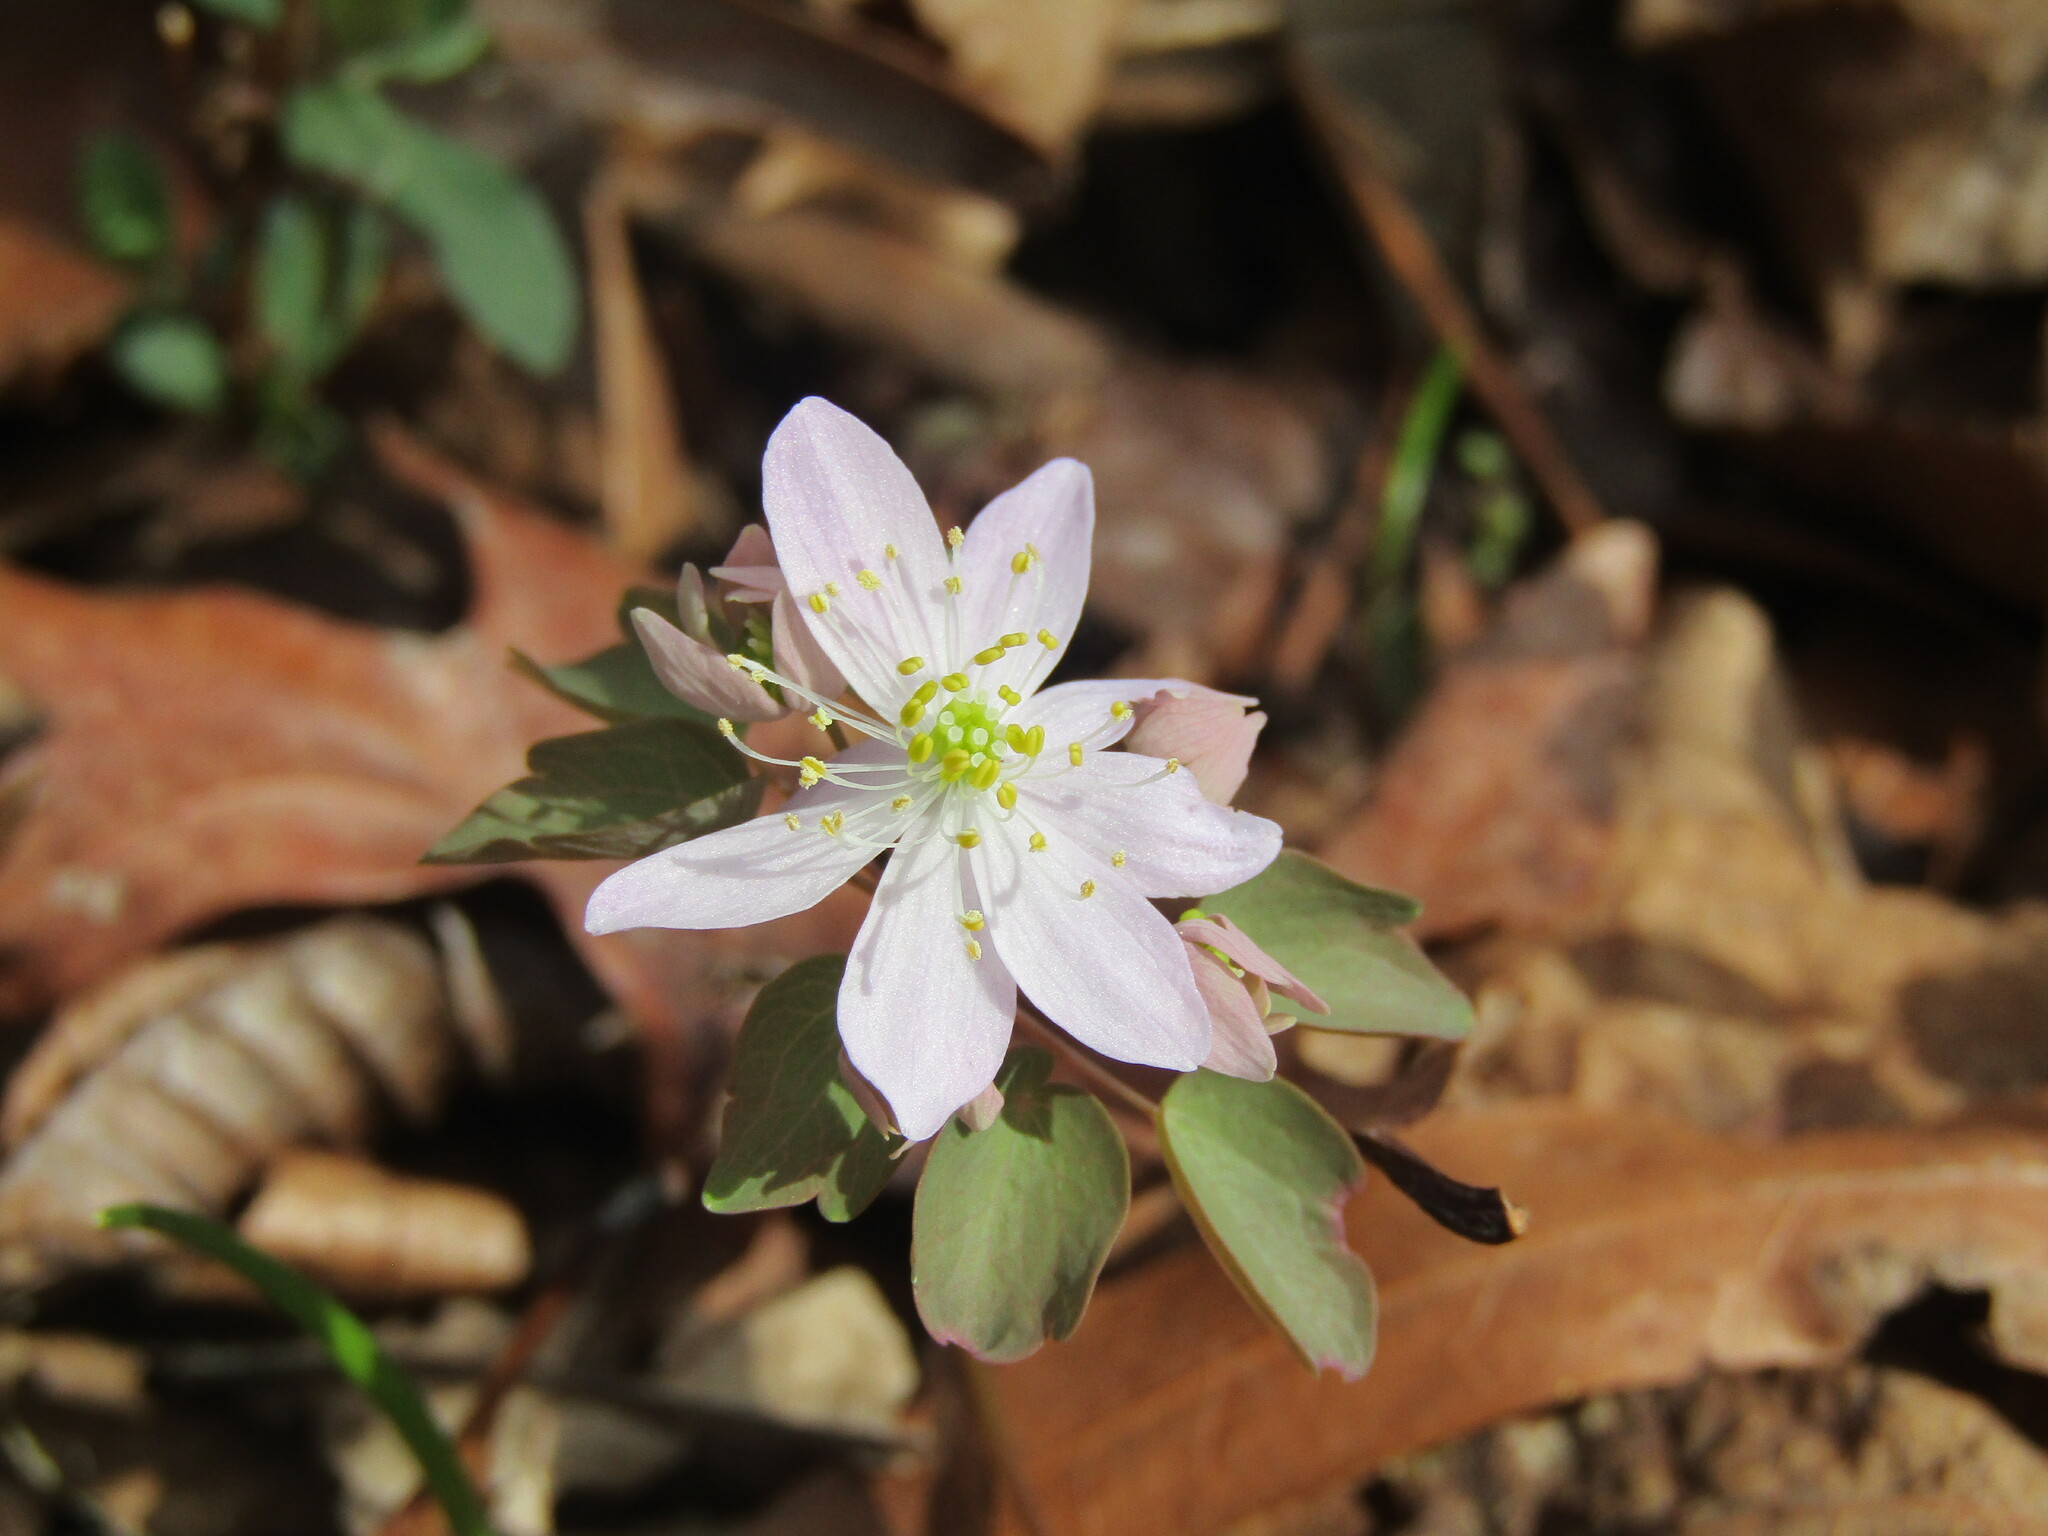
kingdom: Plantae
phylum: Tracheophyta
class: Magnoliopsida
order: Ranunculales
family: Ranunculaceae
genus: Thalictrum
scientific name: Thalictrum thalictroides
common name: Rue-anemone
